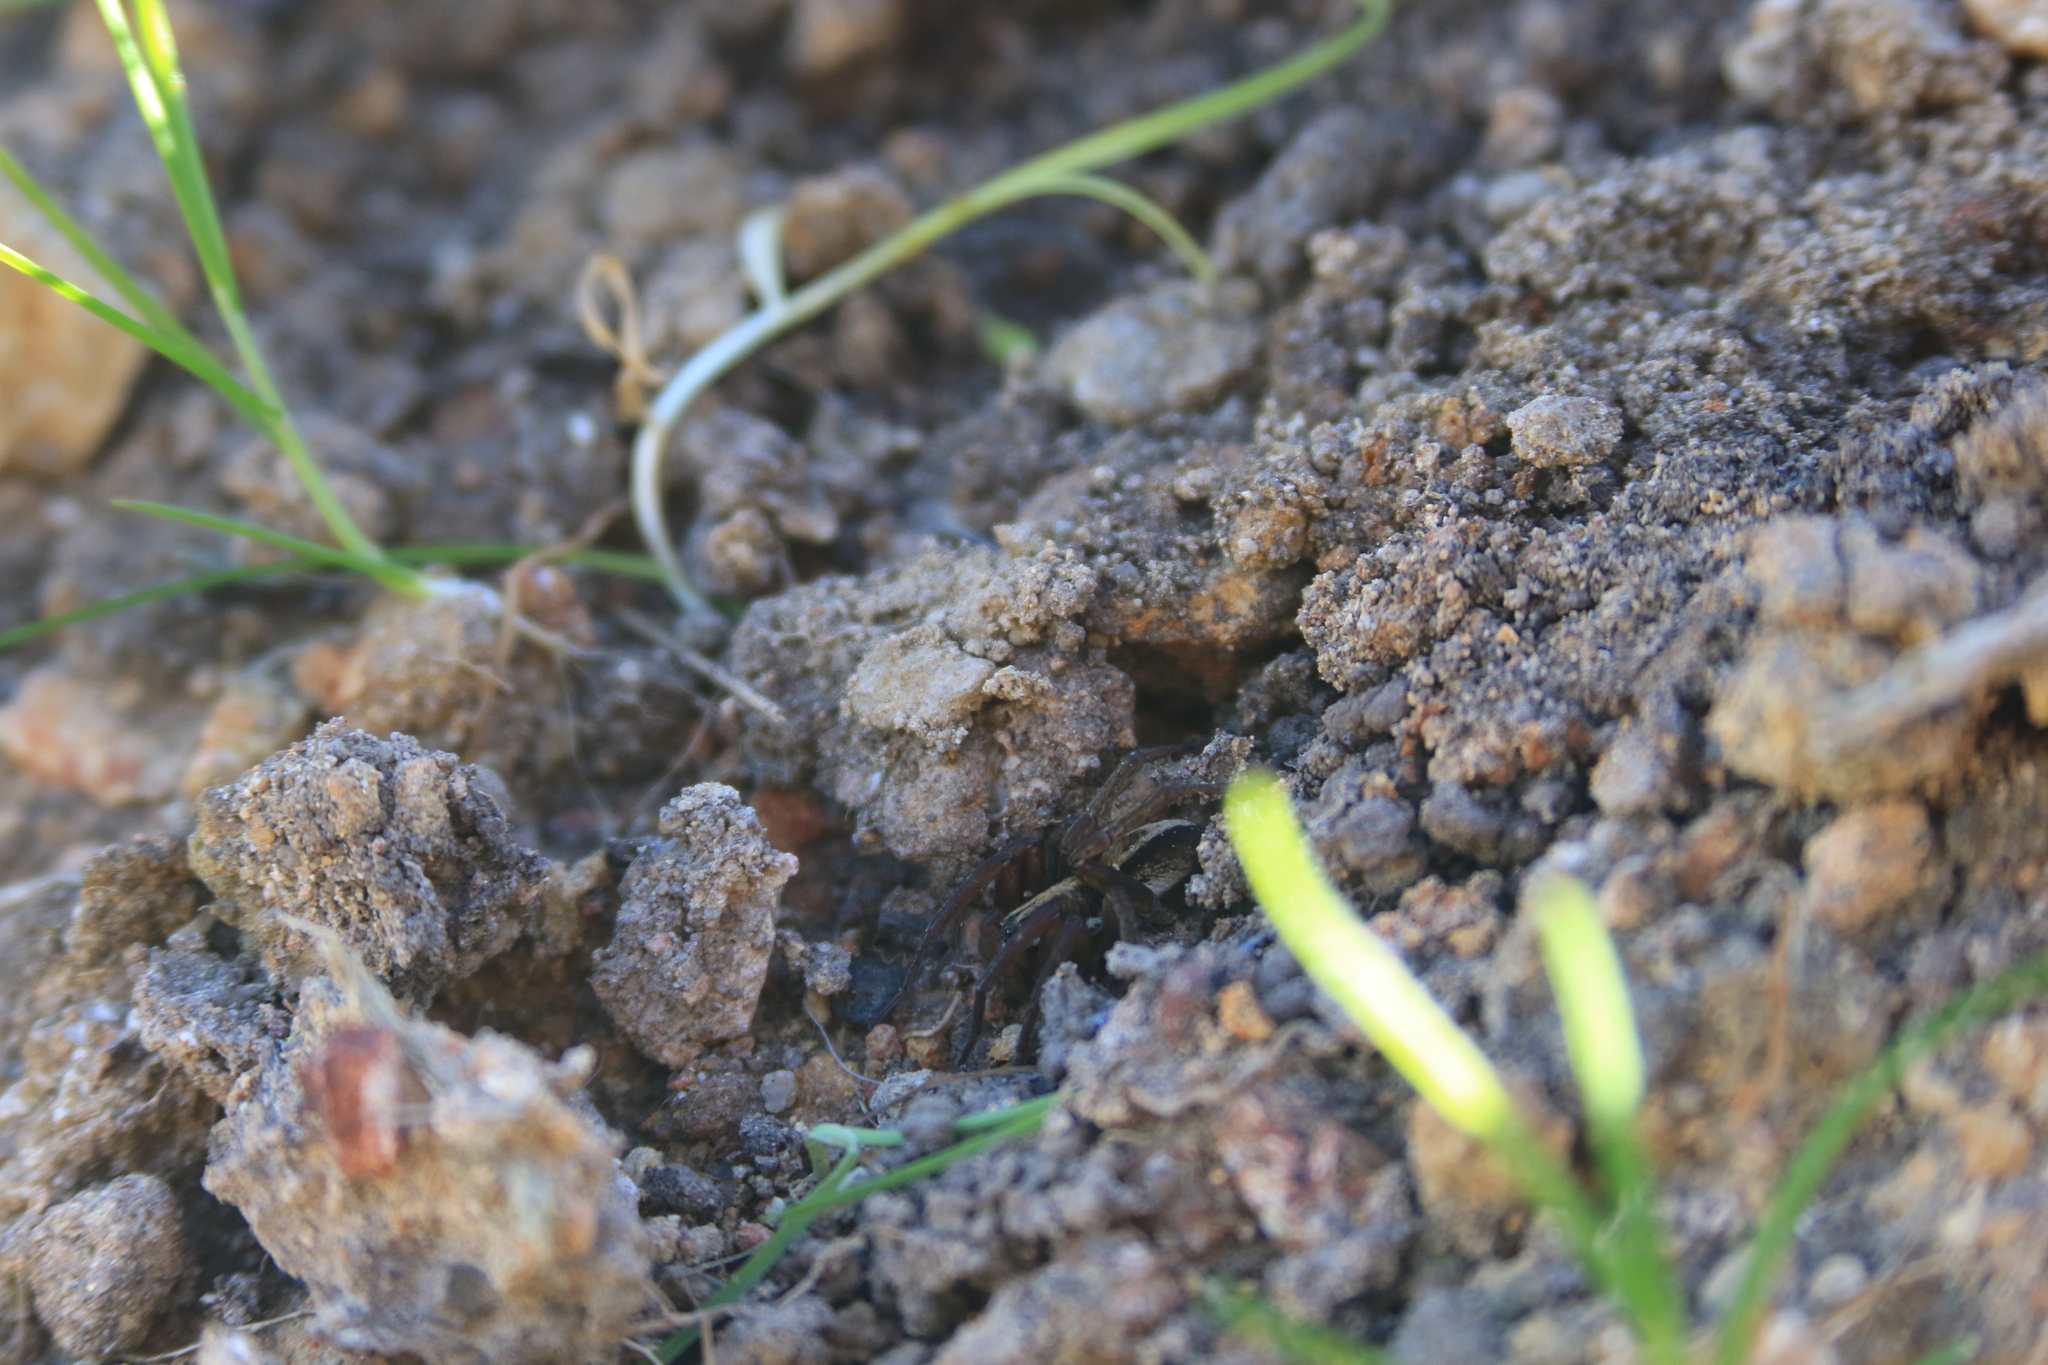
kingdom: Animalia
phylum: Arthropoda
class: Arachnida
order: Araneae
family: Lycosidae
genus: Venatrix
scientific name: Venatrix furcillata
